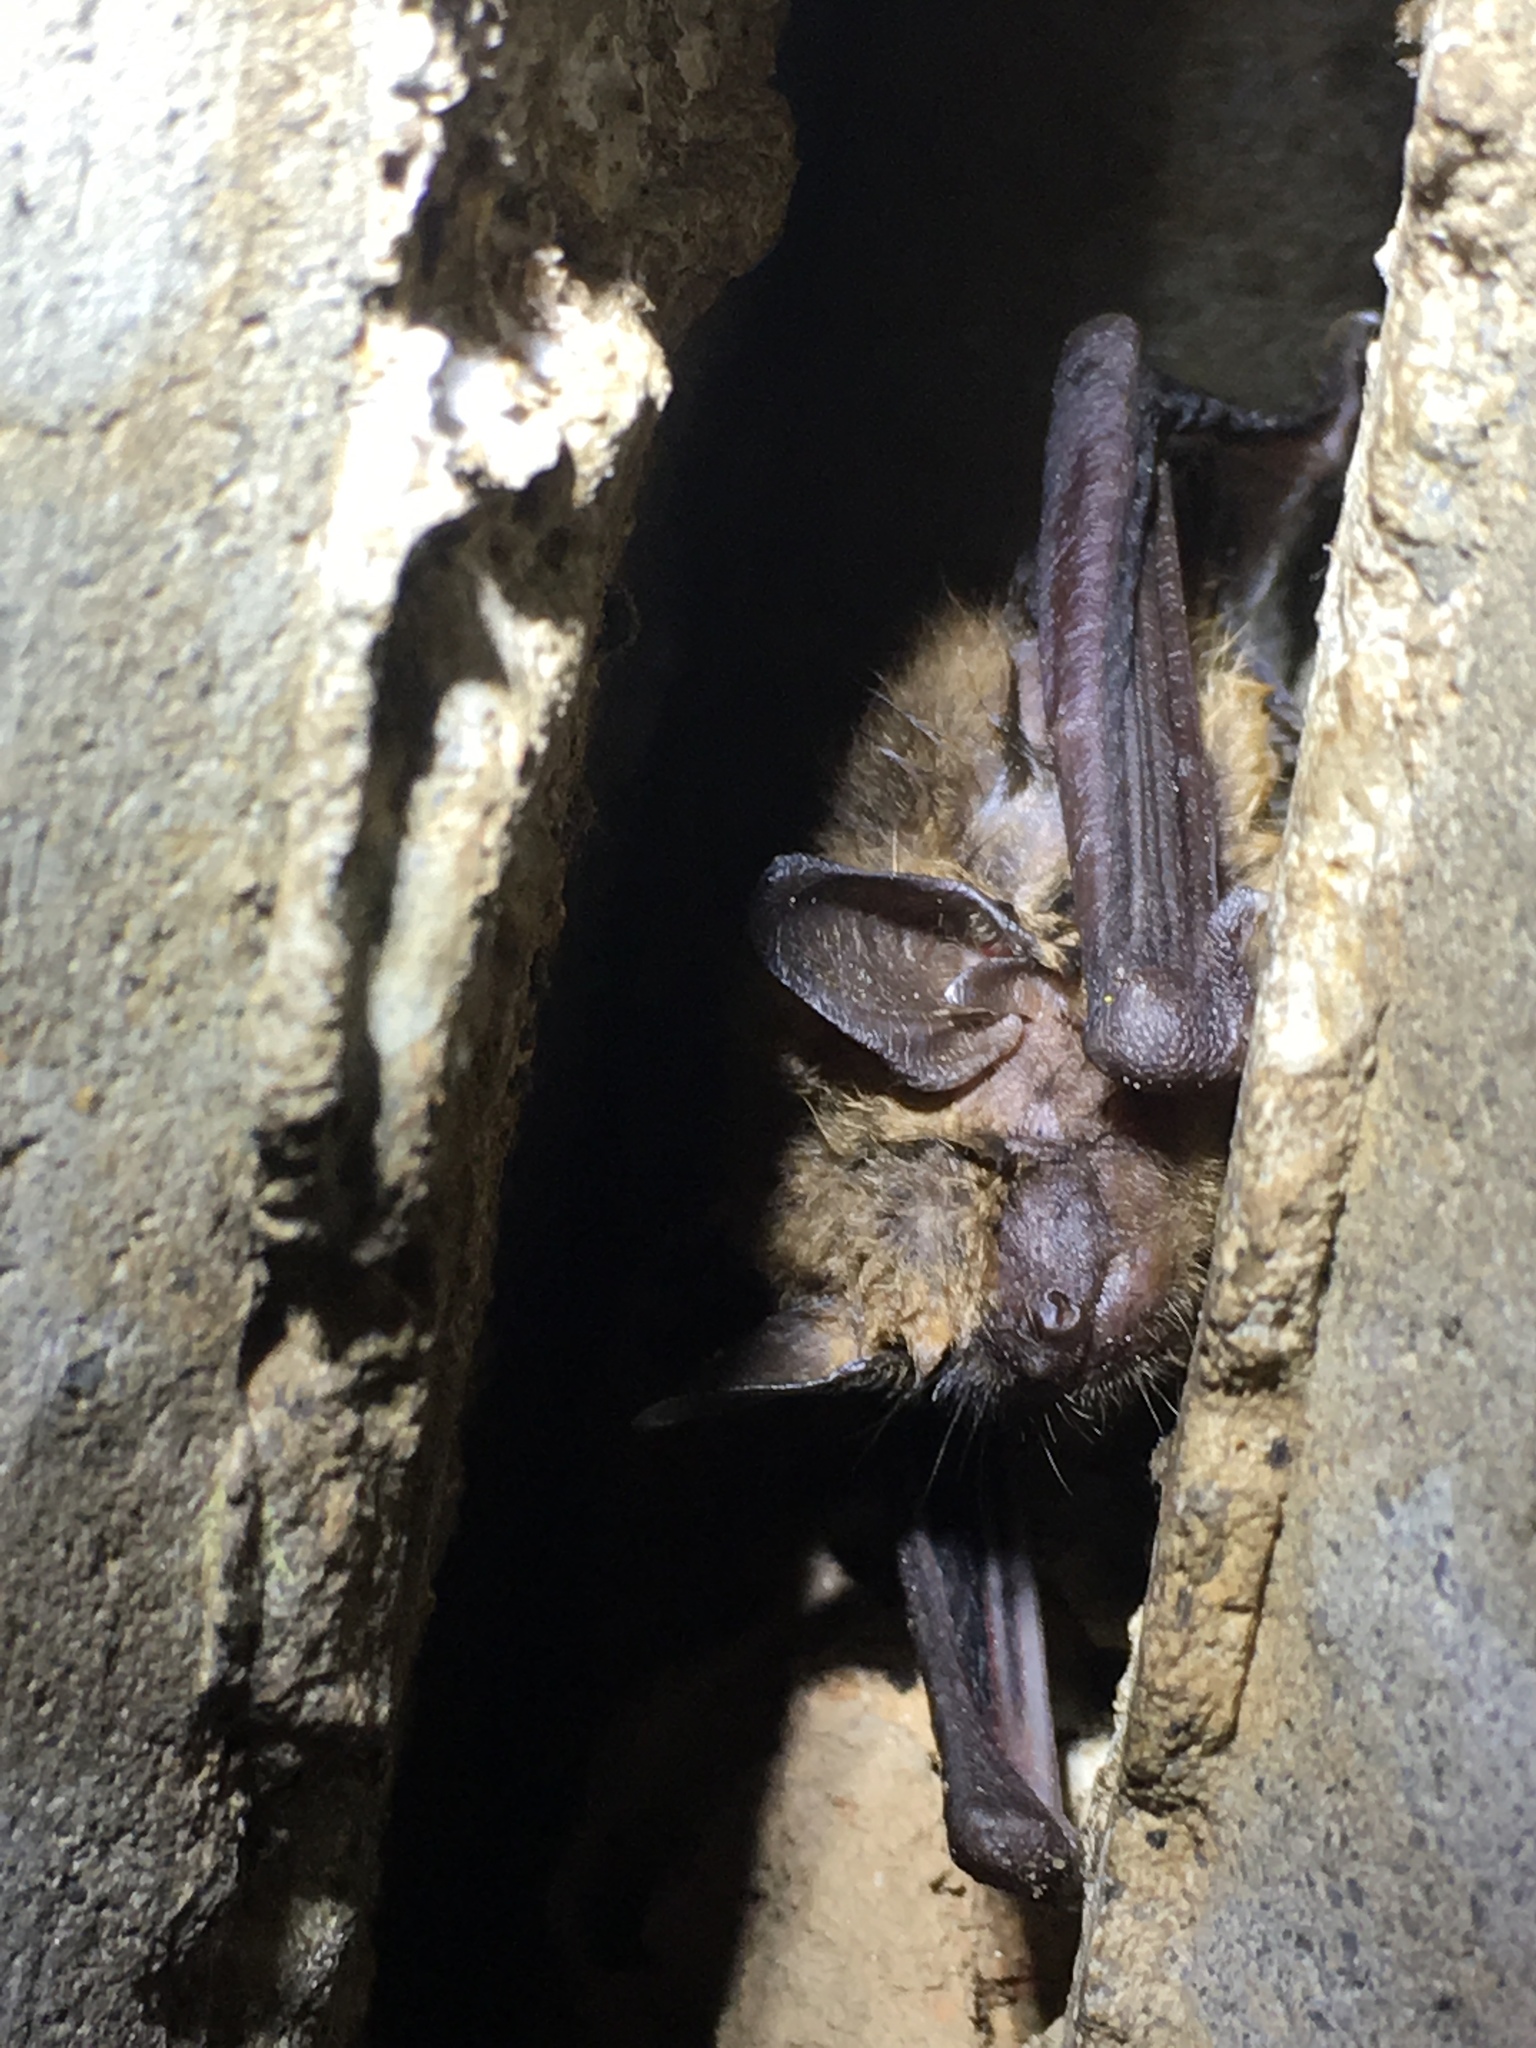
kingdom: Animalia
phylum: Chordata
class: Mammalia
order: Chiroptera
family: Vespertilionidae
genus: Eptesicus
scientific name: Eptesicus fuscus
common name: Big brown bat
